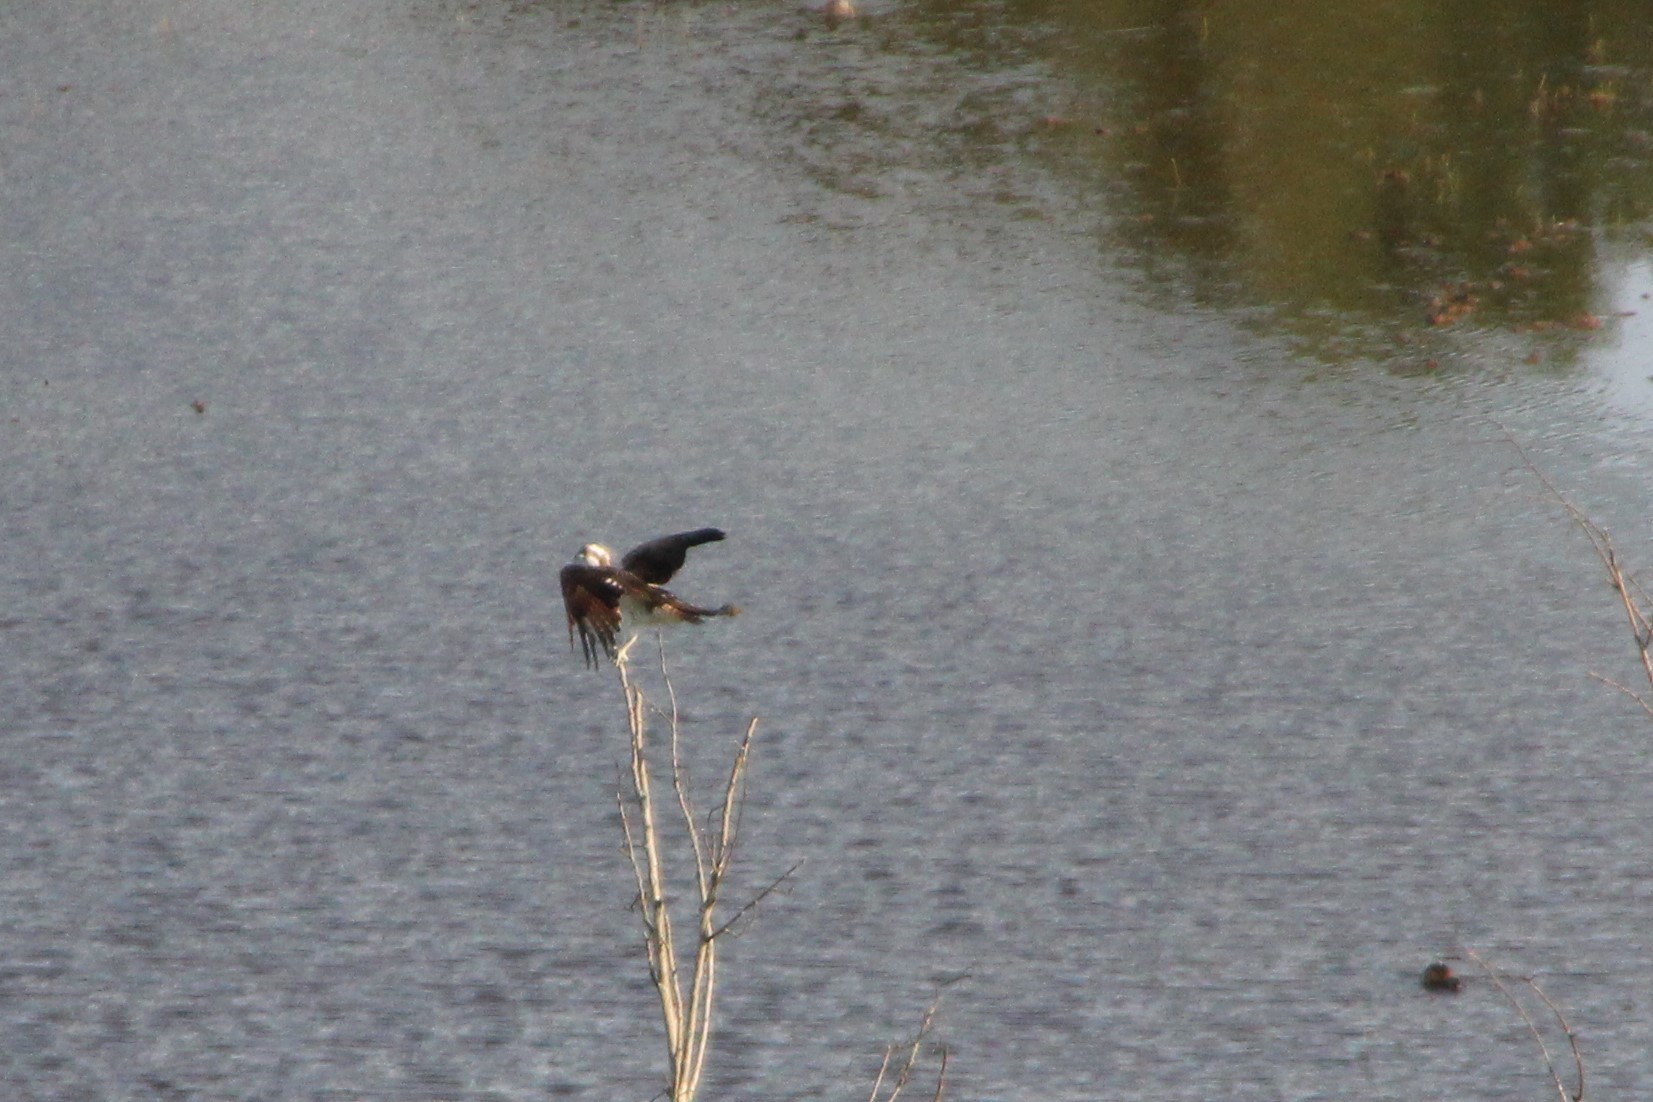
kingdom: Animalia
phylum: Chordata
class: Aves
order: Accipitriformes
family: Pandionidae
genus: Pandion
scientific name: Pandion haliaetus
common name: Osprey
